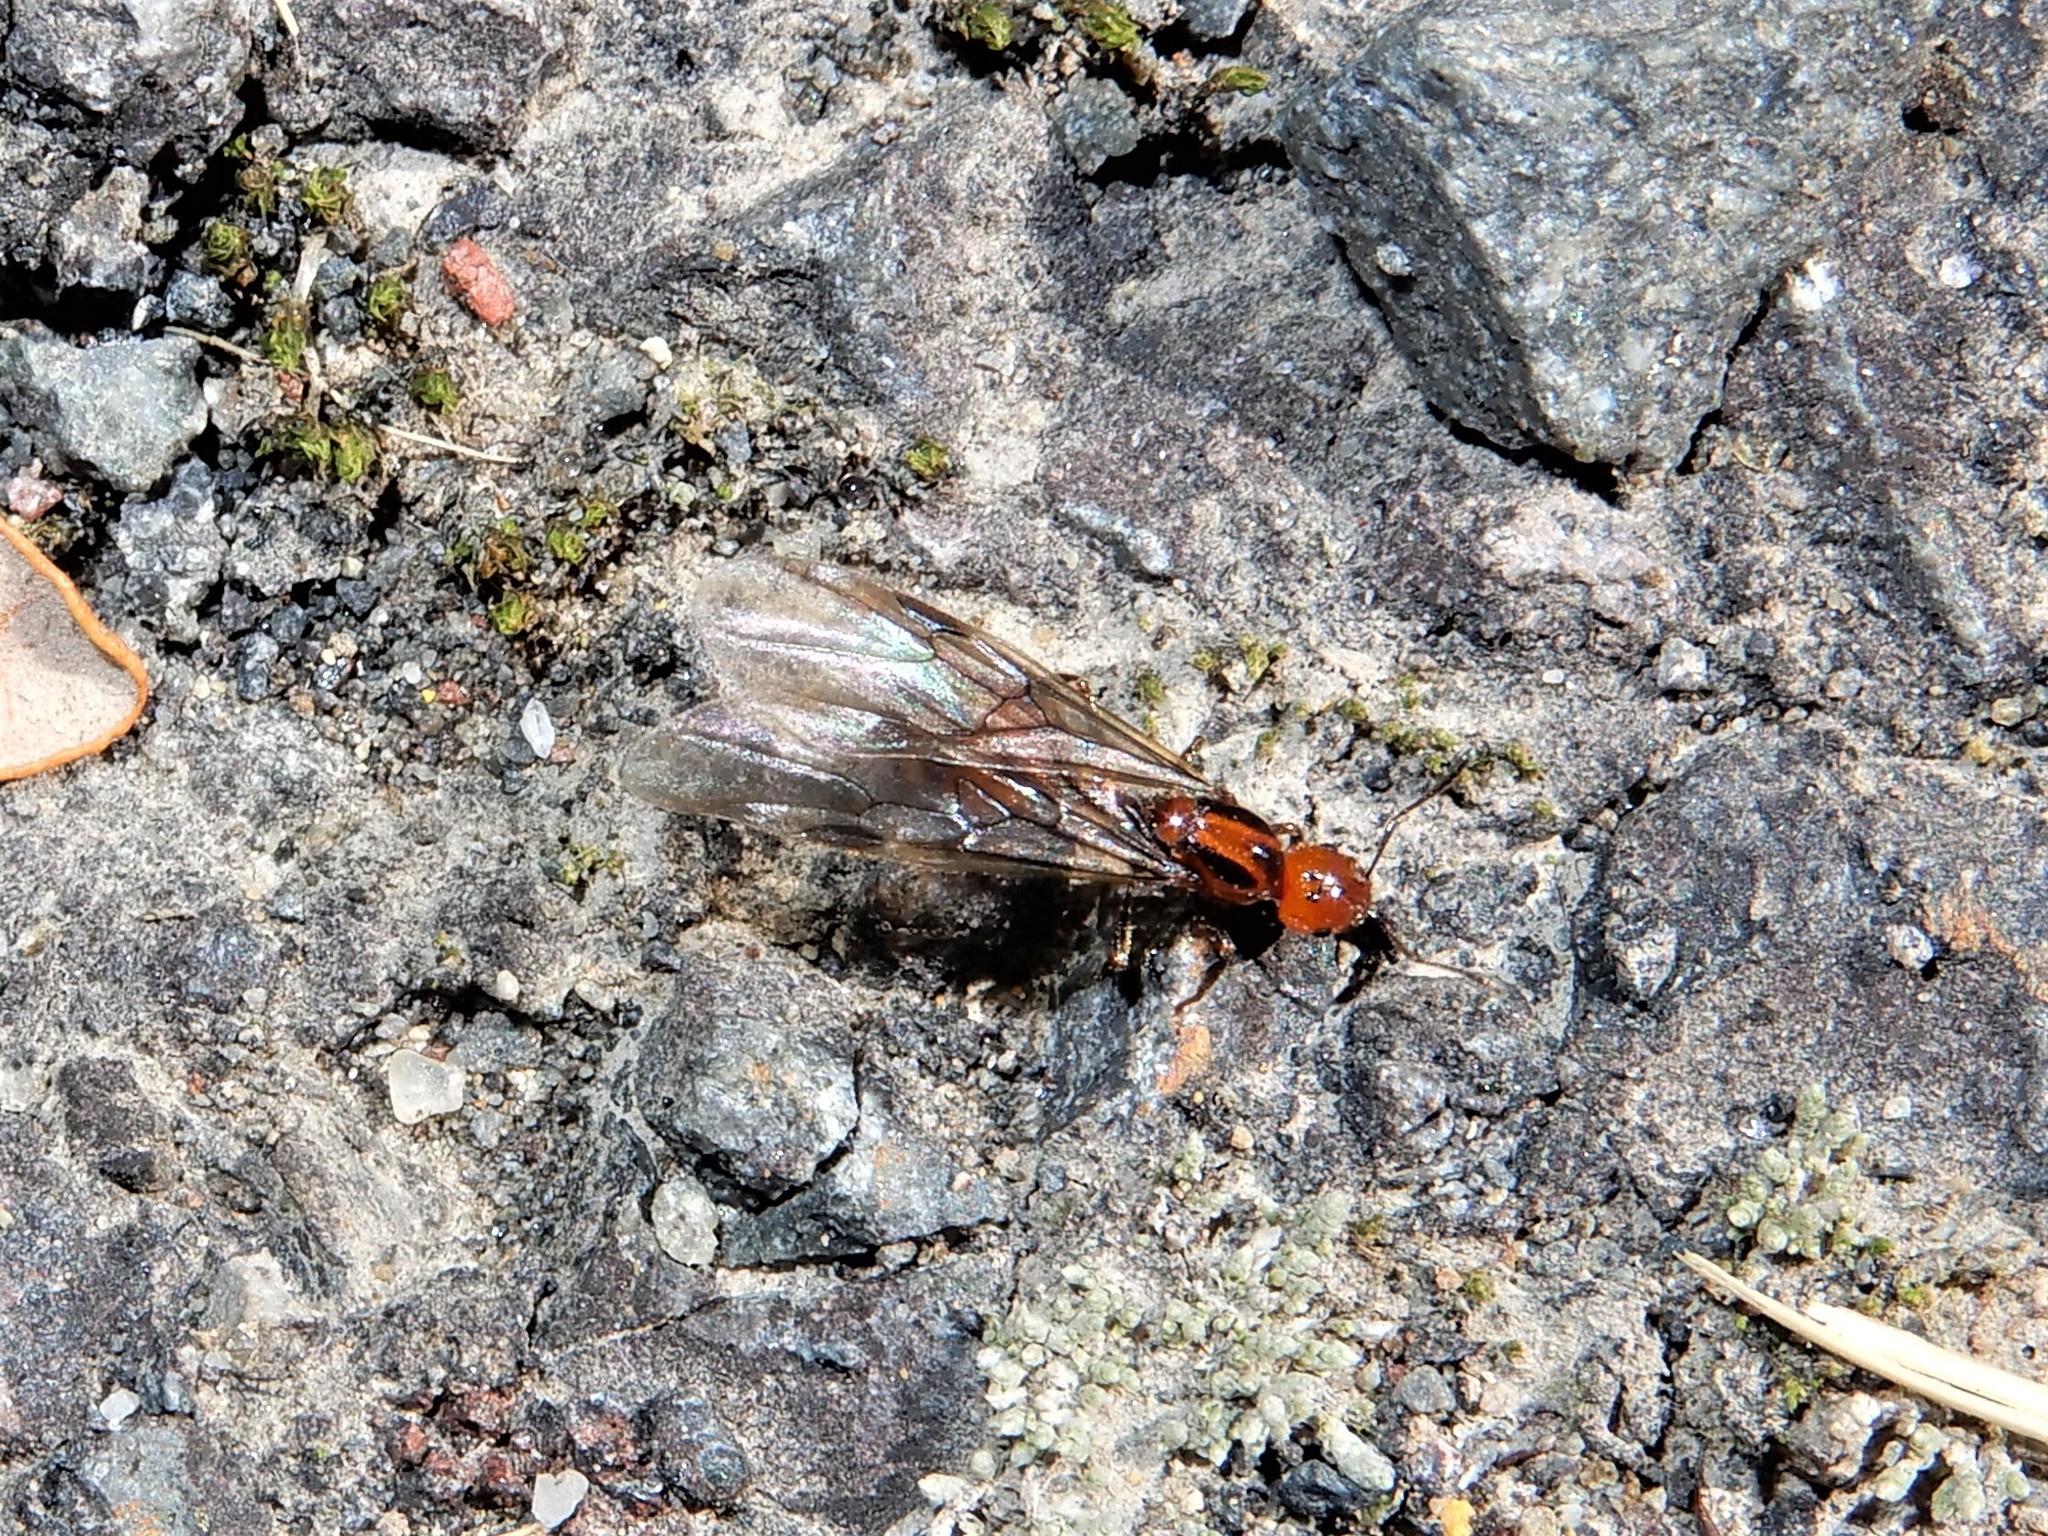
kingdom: Animalia
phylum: Arthropoda
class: Insecta
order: Hymenoptera
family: Formicidae
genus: Monomorium
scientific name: Monomorium antarcticum
